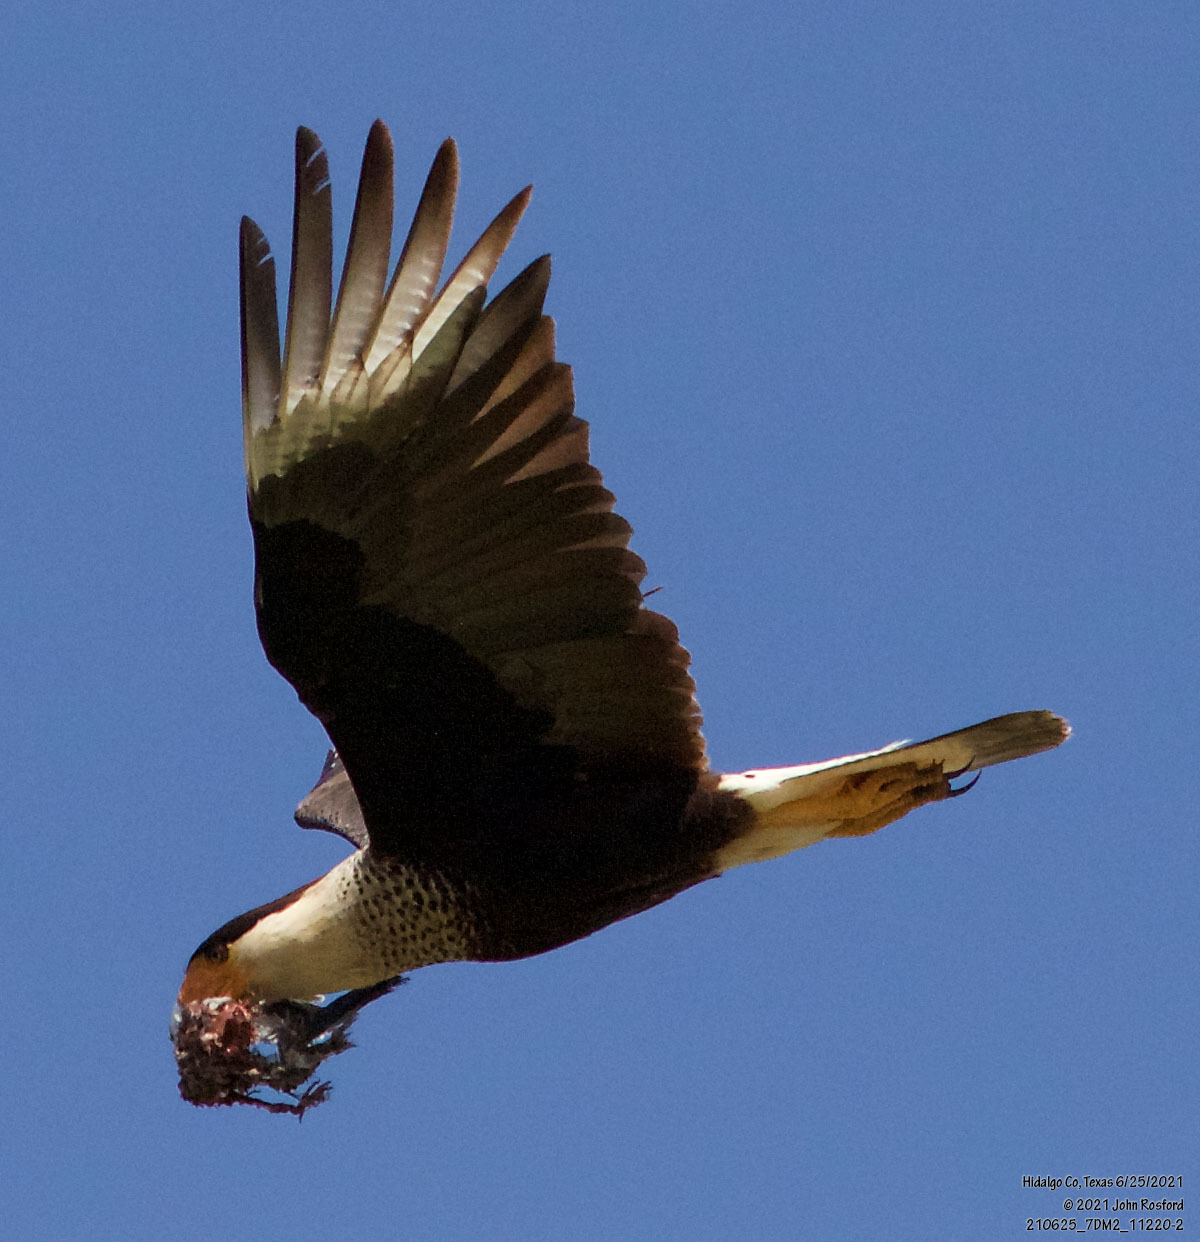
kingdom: Animalia
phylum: Chordata
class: Aves
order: Falconiformes
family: Falconidae
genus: Caracara
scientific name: Caracara plancus
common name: Southern caracara
